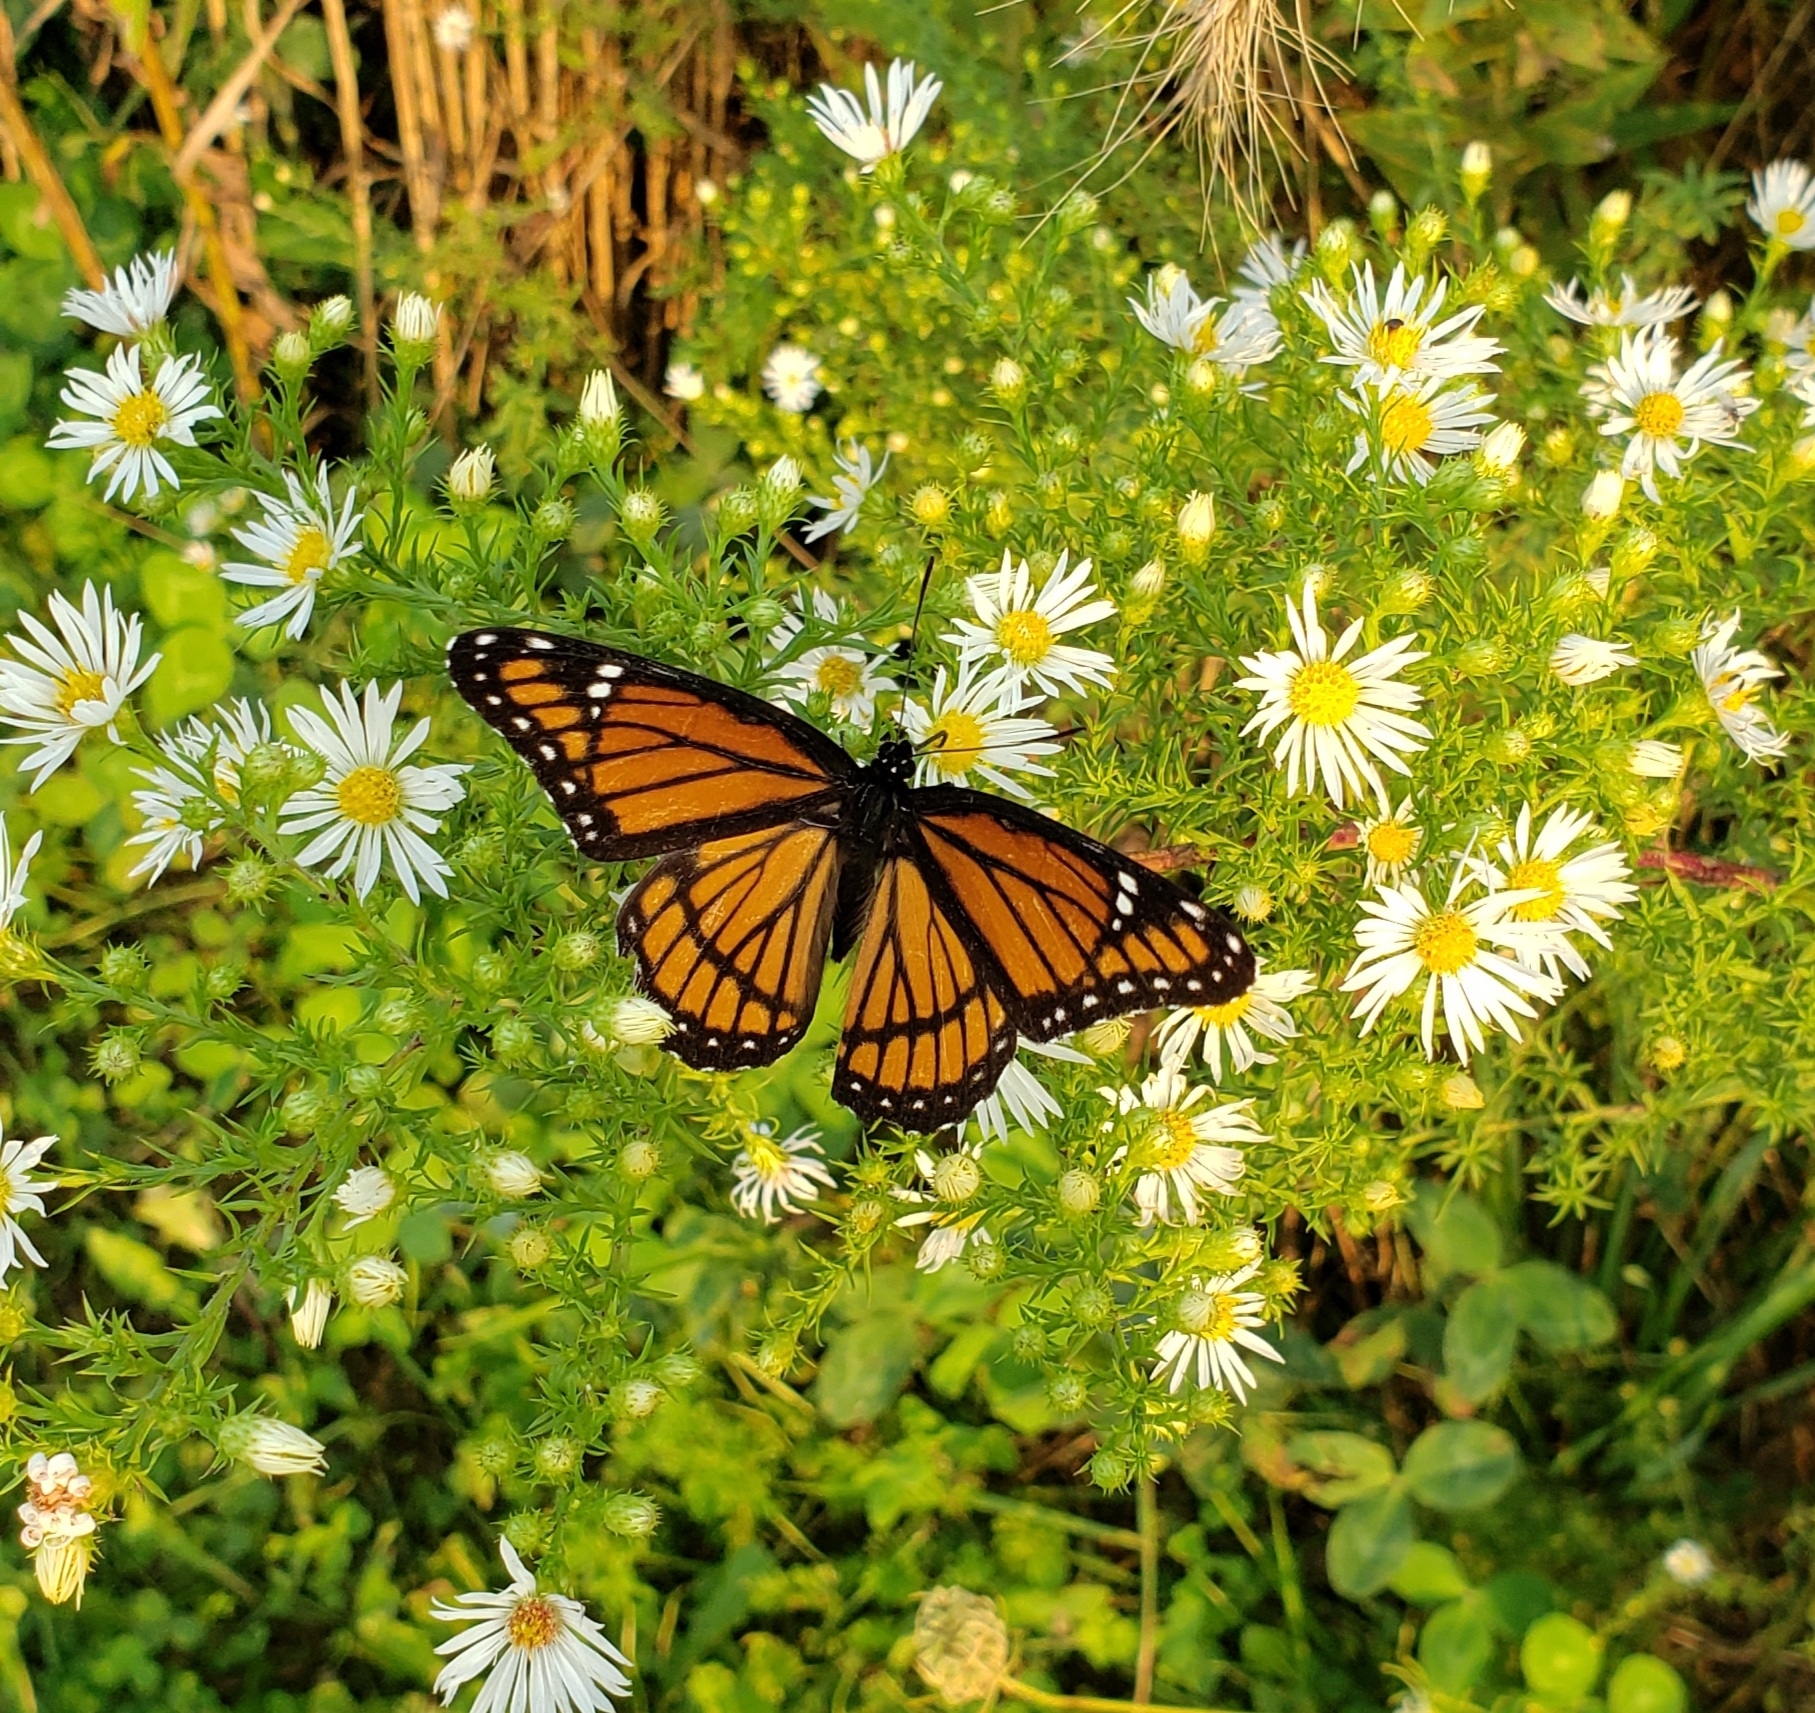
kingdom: Animalia
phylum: Arthropoda
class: Insecta
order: Lepidoptera
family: Nymphalidae
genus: Limenitis
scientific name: Limenitis archippus
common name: Viceroy
